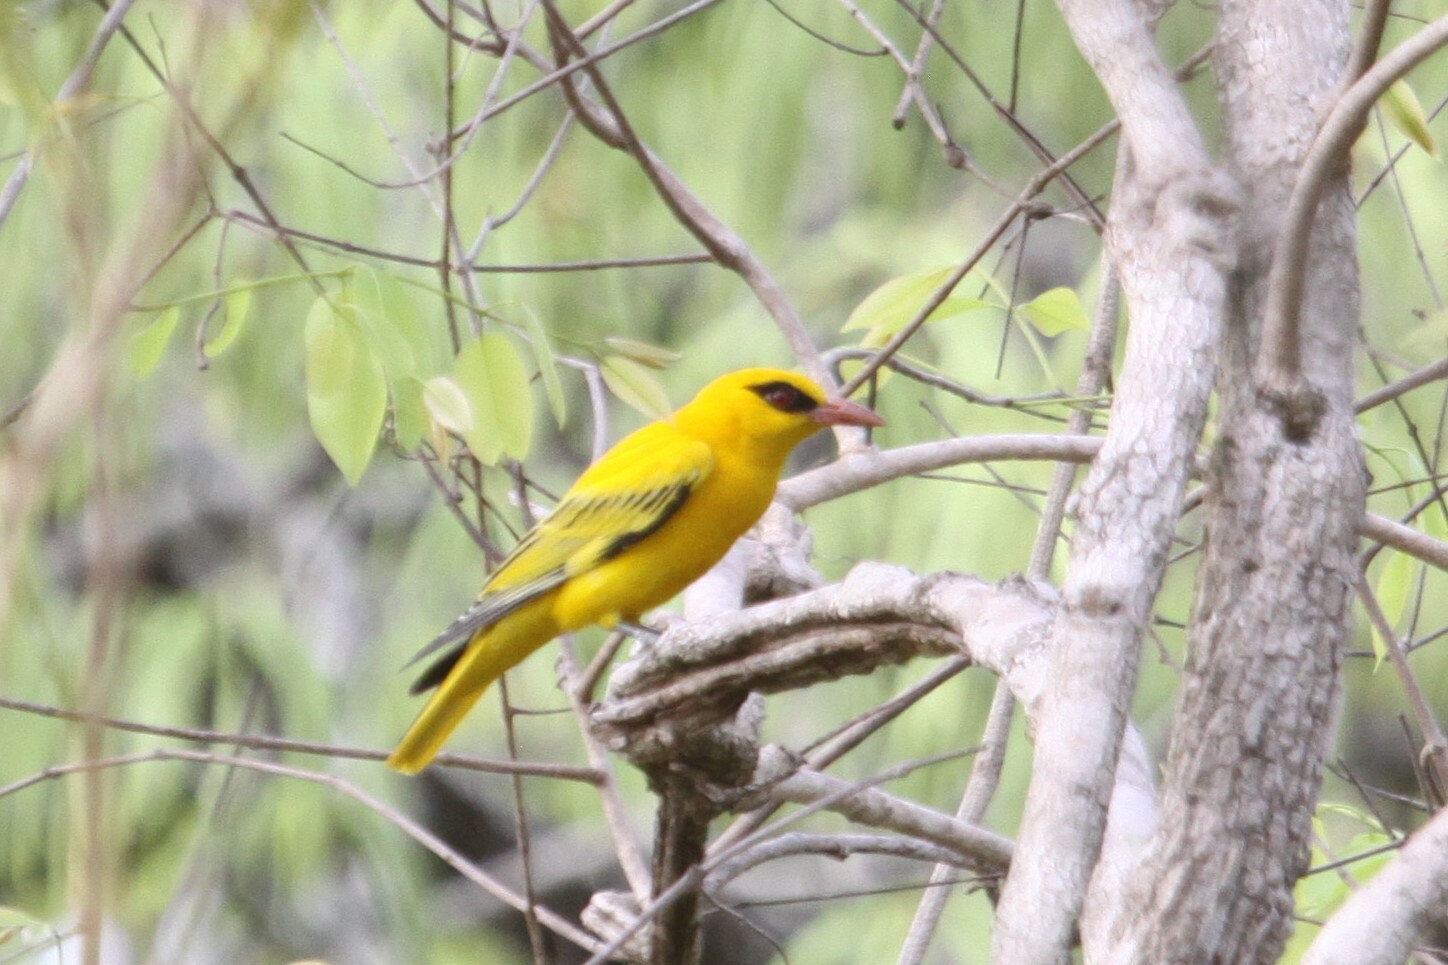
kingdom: Animalia
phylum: Chordata
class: Aves
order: Passeriformes
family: Oriolidae
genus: Oriolus
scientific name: Oriolus auratus
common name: African golden oriole
